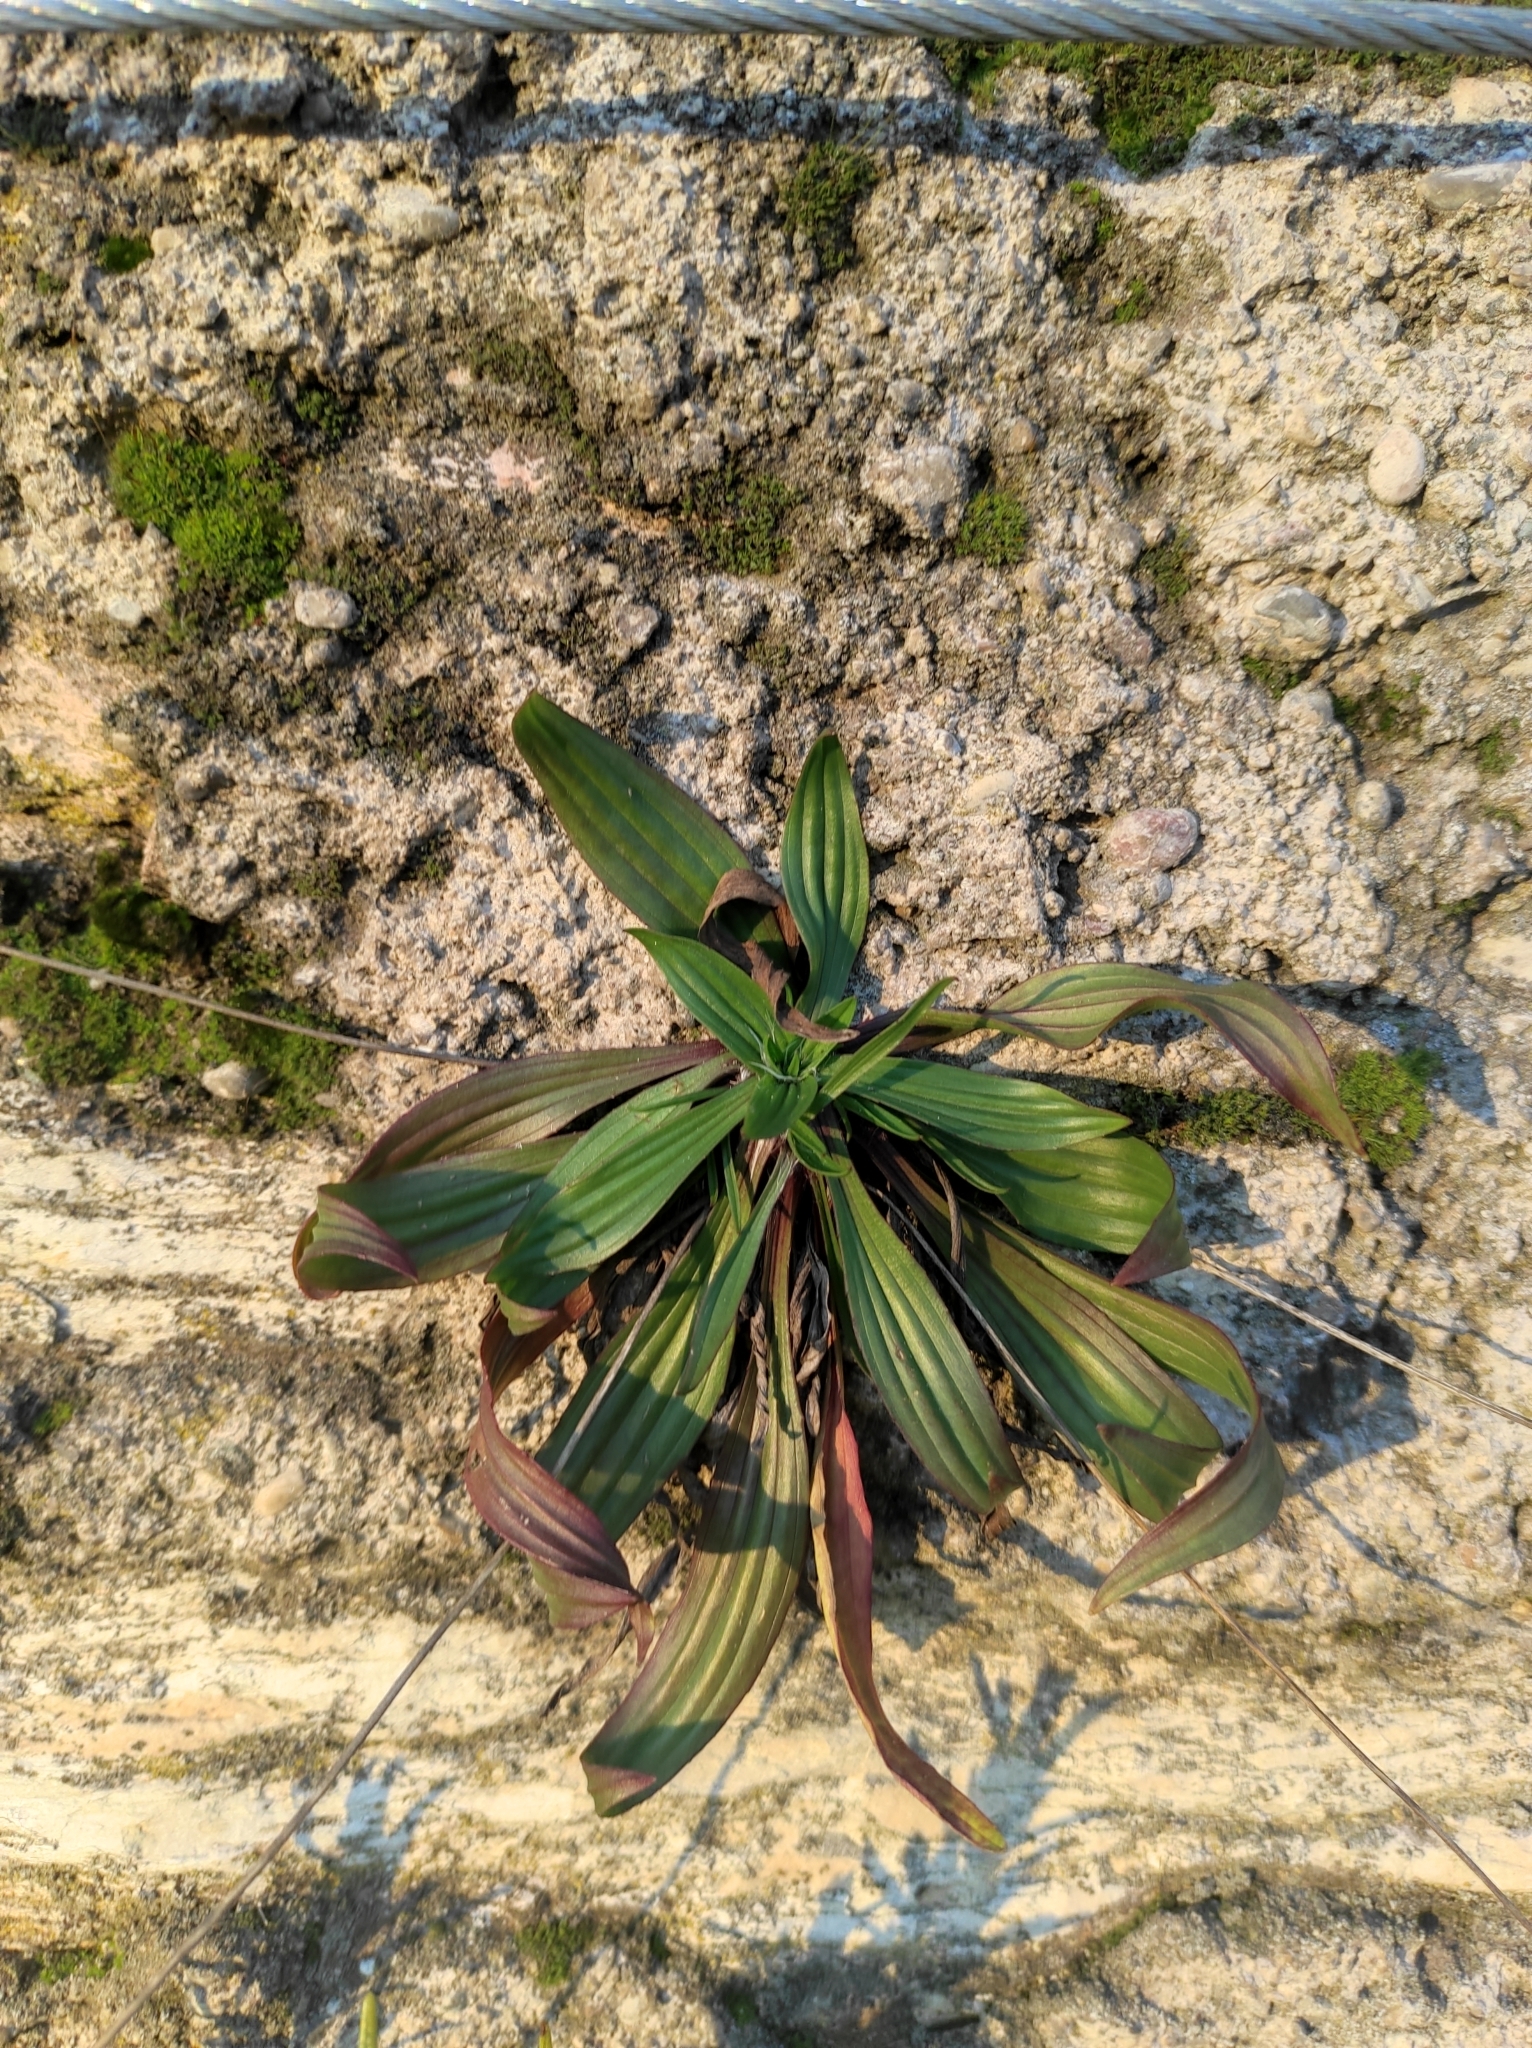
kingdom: Plantae
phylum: Tracheophyta
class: Magnoliopsida
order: Lamiales
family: Plantaginaceae
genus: Plantago
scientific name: Plantago lanceolata
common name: Ribwort plantain
